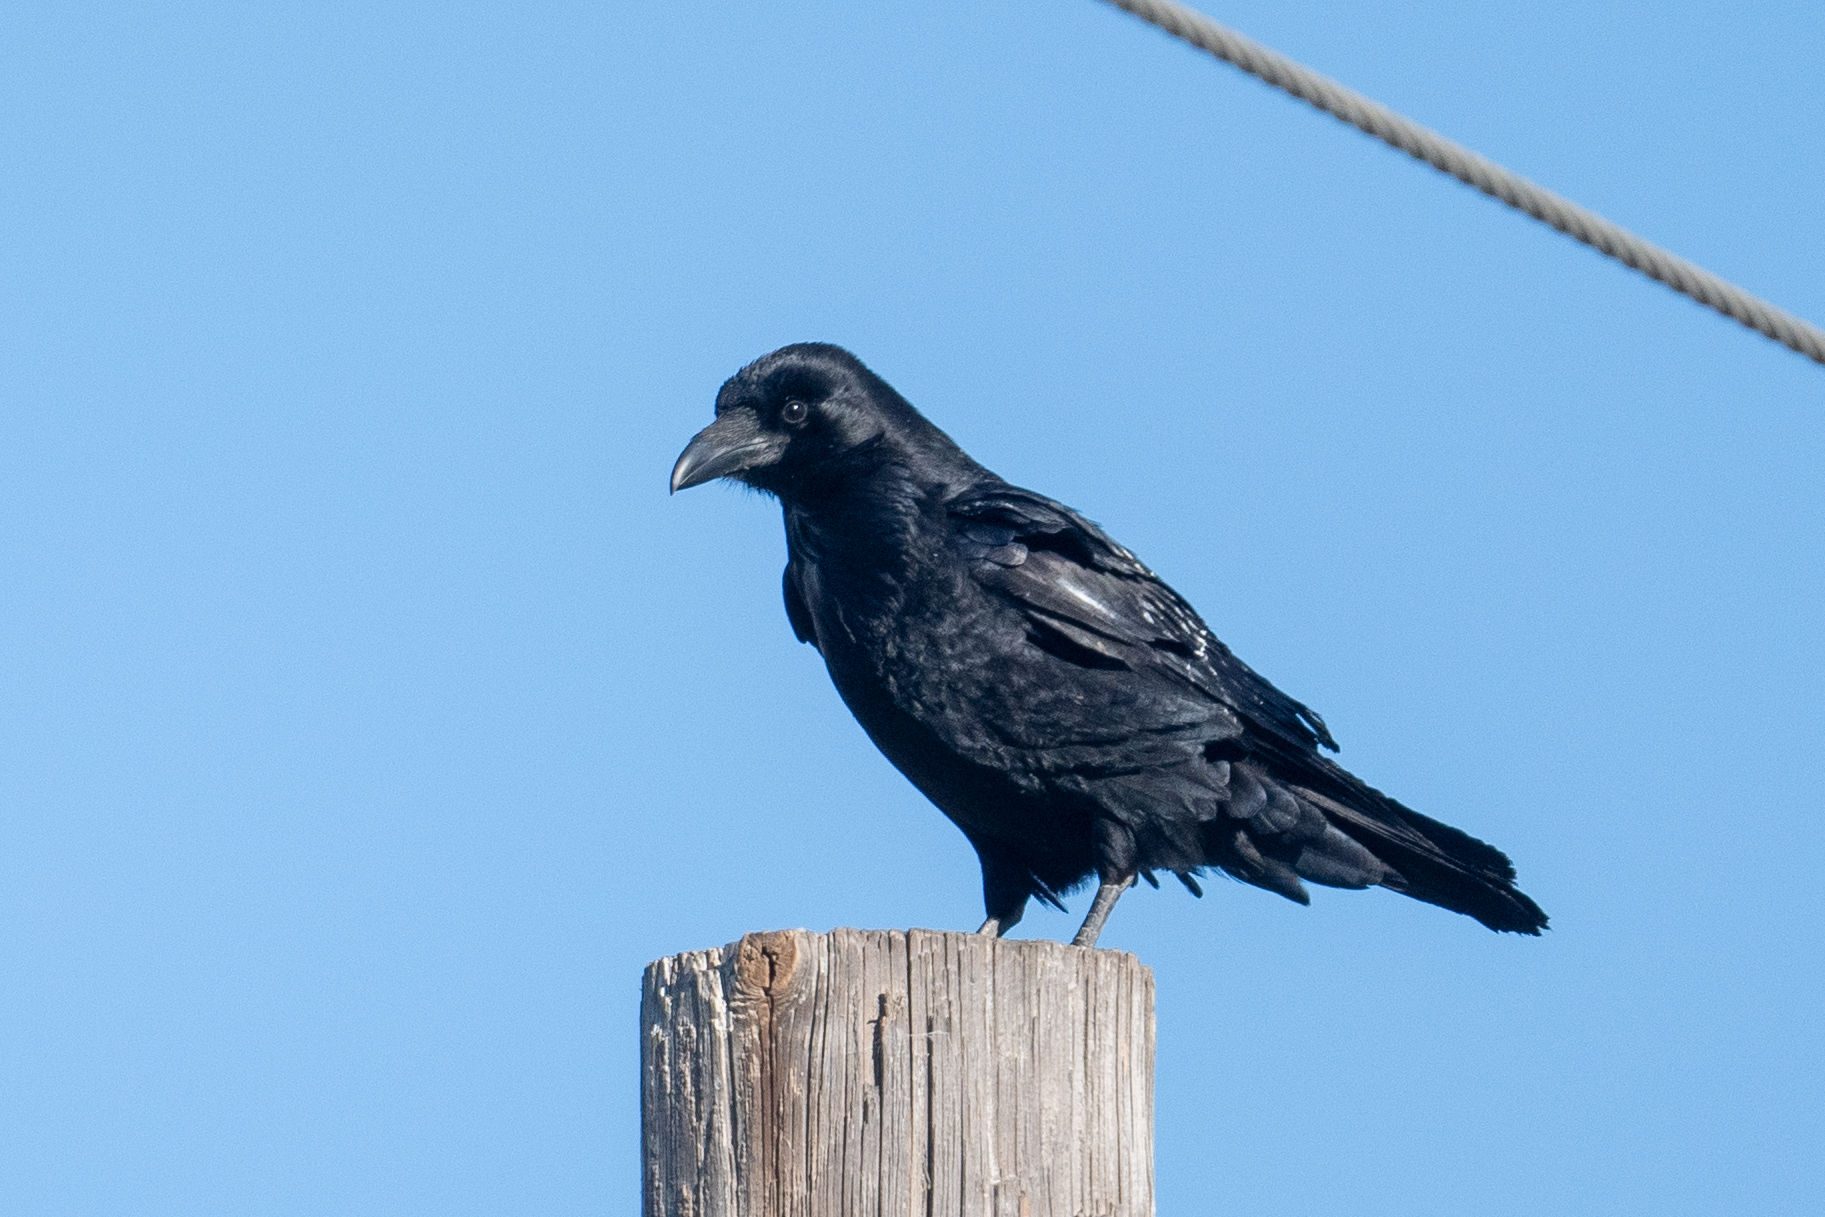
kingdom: Animalia
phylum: Chordata
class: Aves
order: Passeriformes
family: Corvidae
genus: Corvus
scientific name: Corvus corax
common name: Common raven
